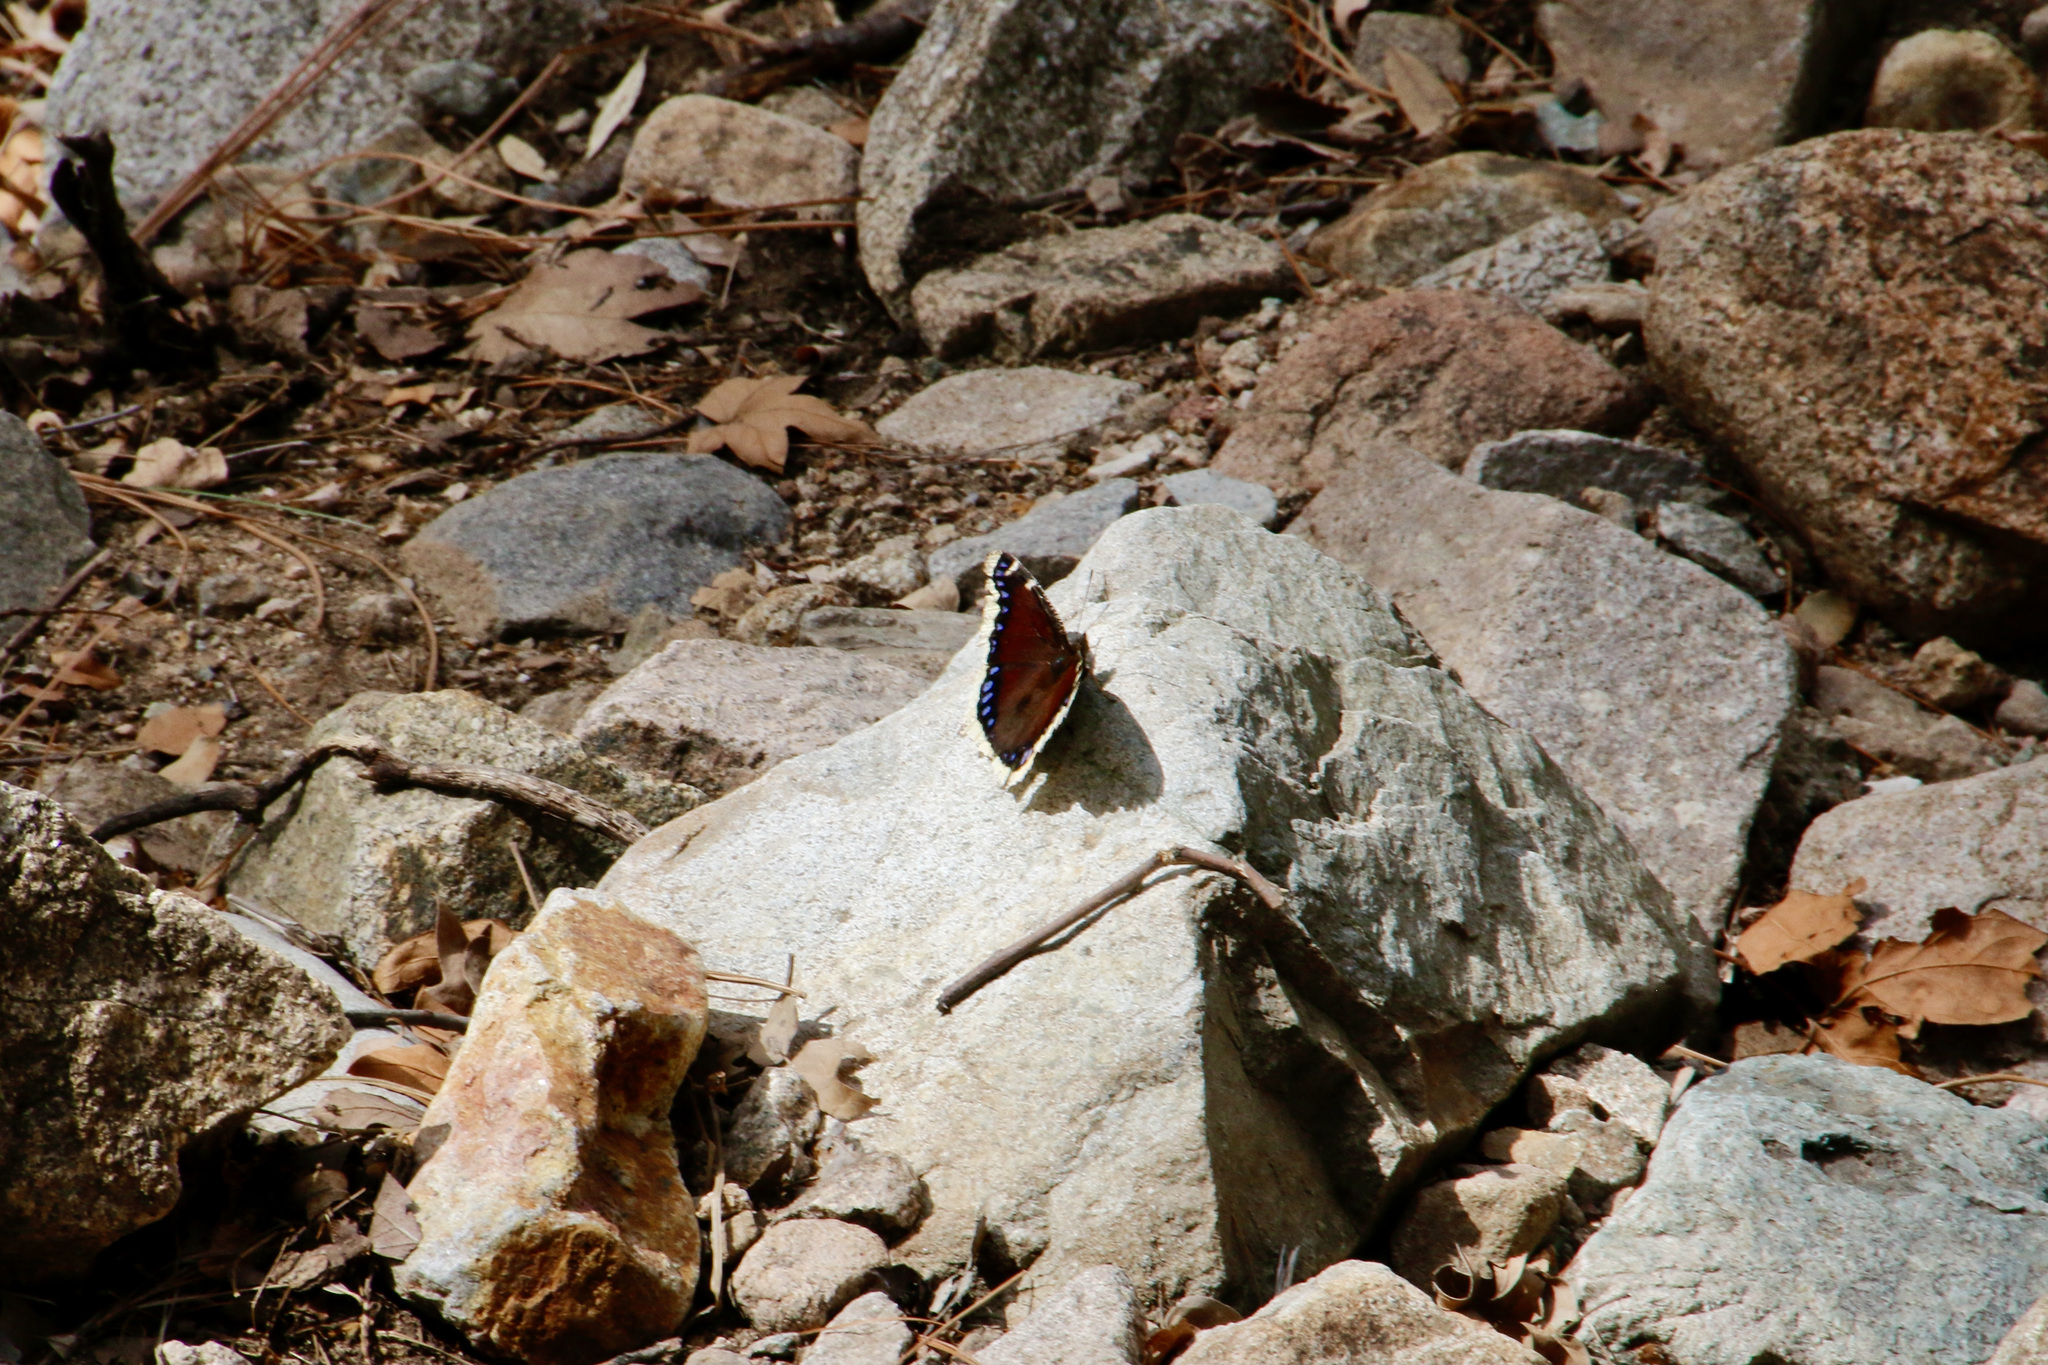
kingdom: Animalia
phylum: Arthropoda
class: Insecta
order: Lepidoptera
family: Nymphalidae
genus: Nymphalis
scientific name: Nymphalis antiopa
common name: Camberwell beauty
